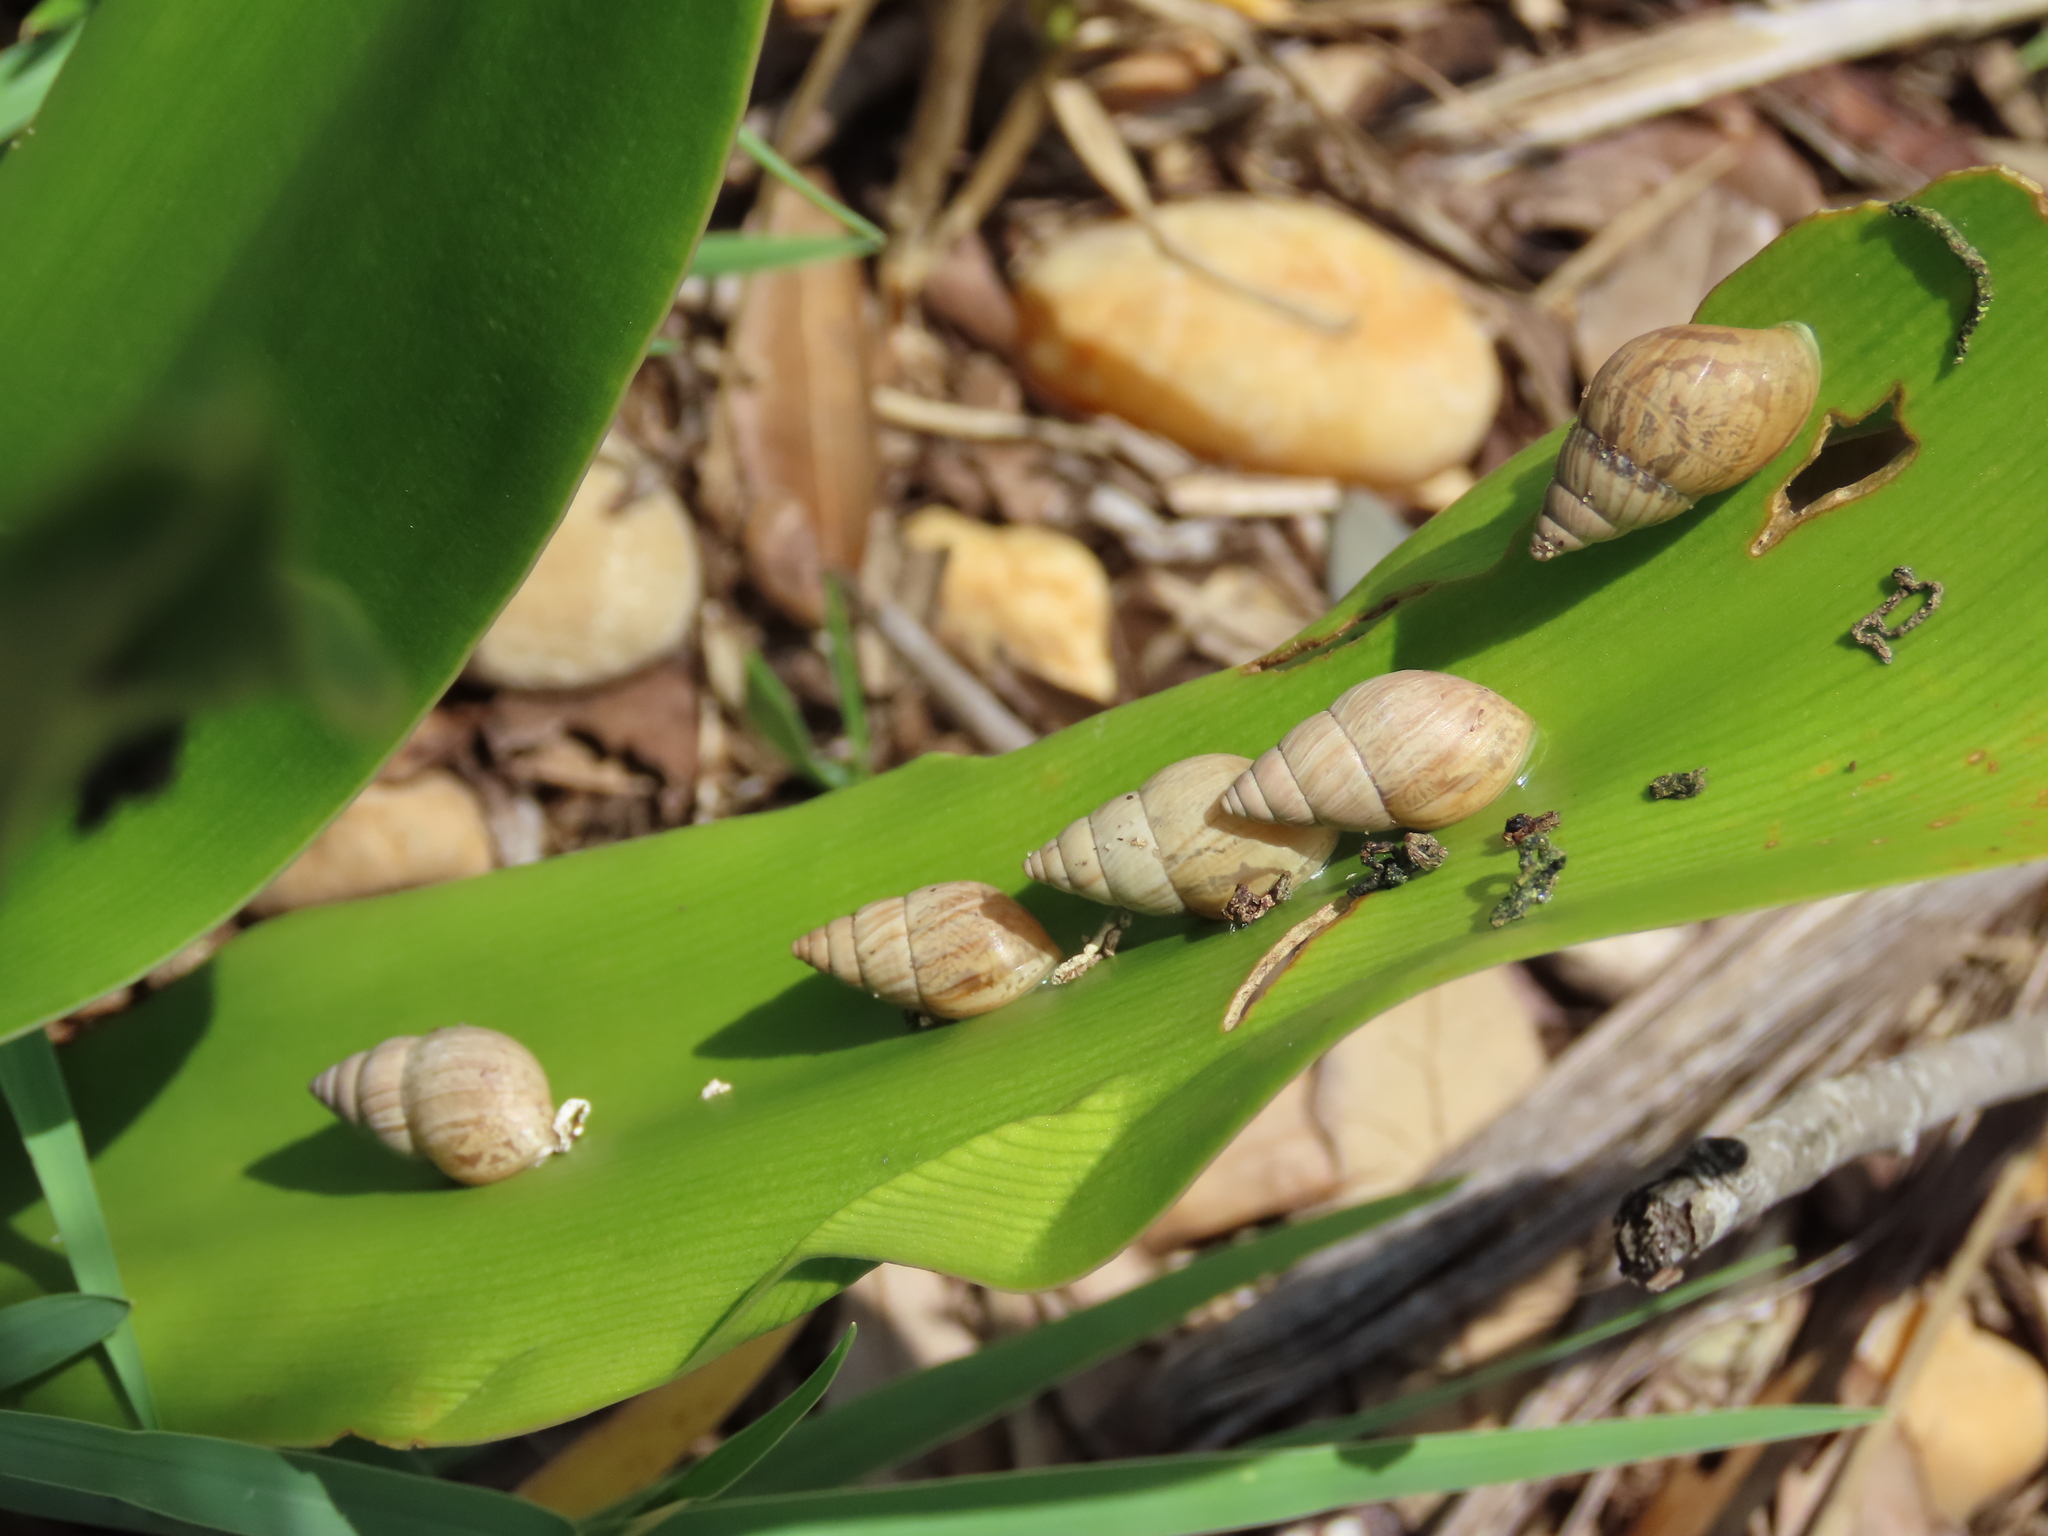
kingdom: Animalia
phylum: Mollusca
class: Gastropoda
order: Stylommatophora
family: Bulimulidae
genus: Bulimulus
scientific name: Bulimulus bonariensis
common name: Snail
